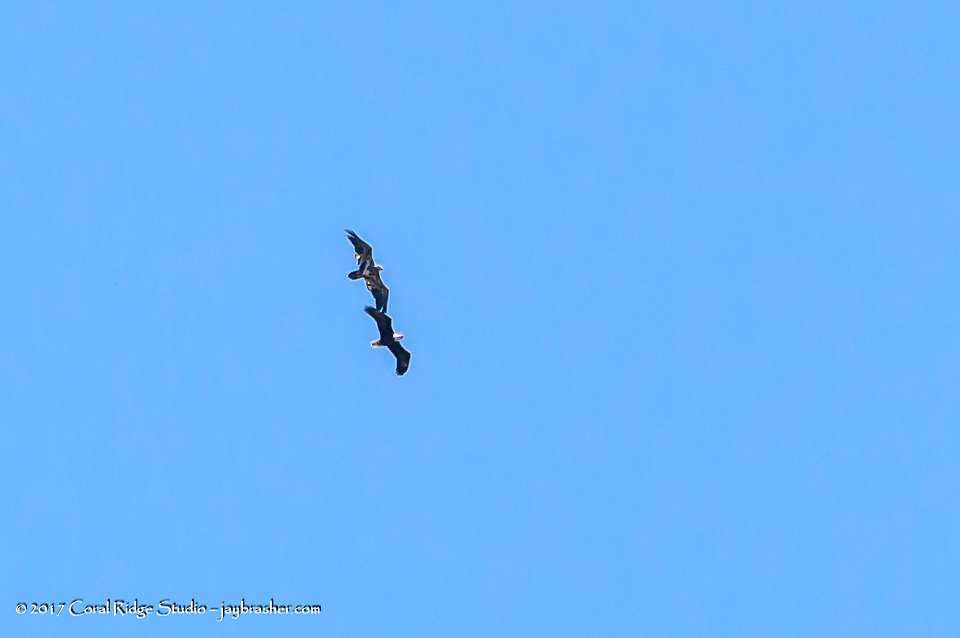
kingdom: Animalia
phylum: Chordata
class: Aves
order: Accipitriformes
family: Accipitridae
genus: Haliaeetus
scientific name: Haliaeetus leucocephalus
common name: Bald eagle
